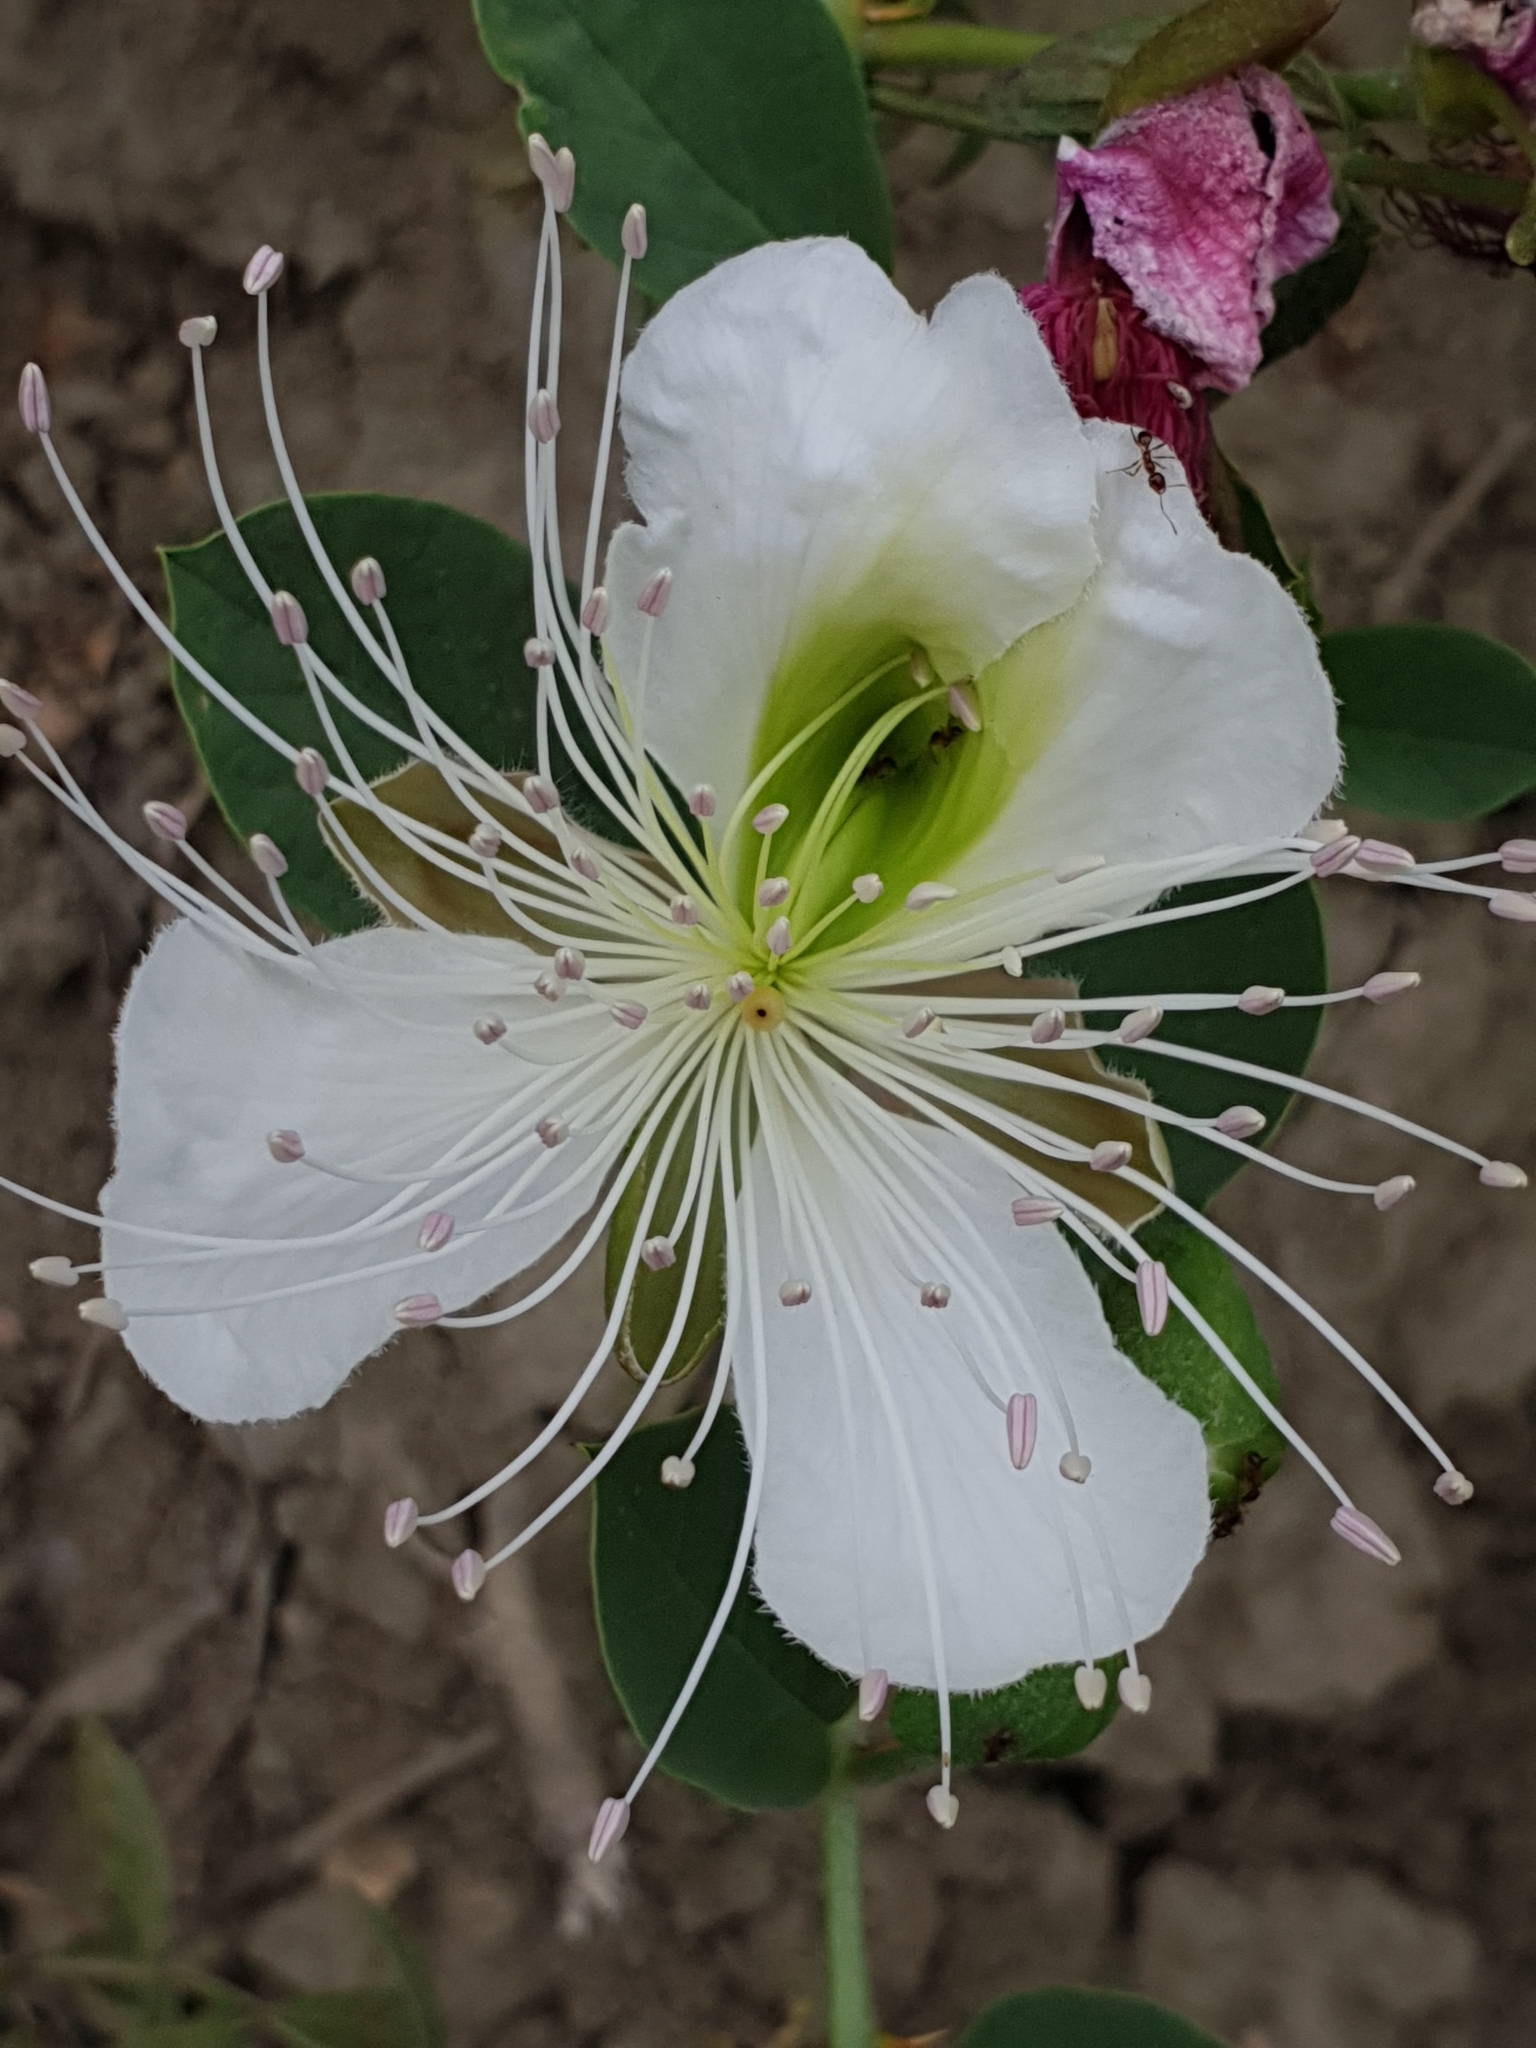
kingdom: Plantae
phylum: Tracheophyta
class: Magnoliopsida
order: Brassicales
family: Capparaceae
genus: Capparis
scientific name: Capparis spinosa
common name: Caper
